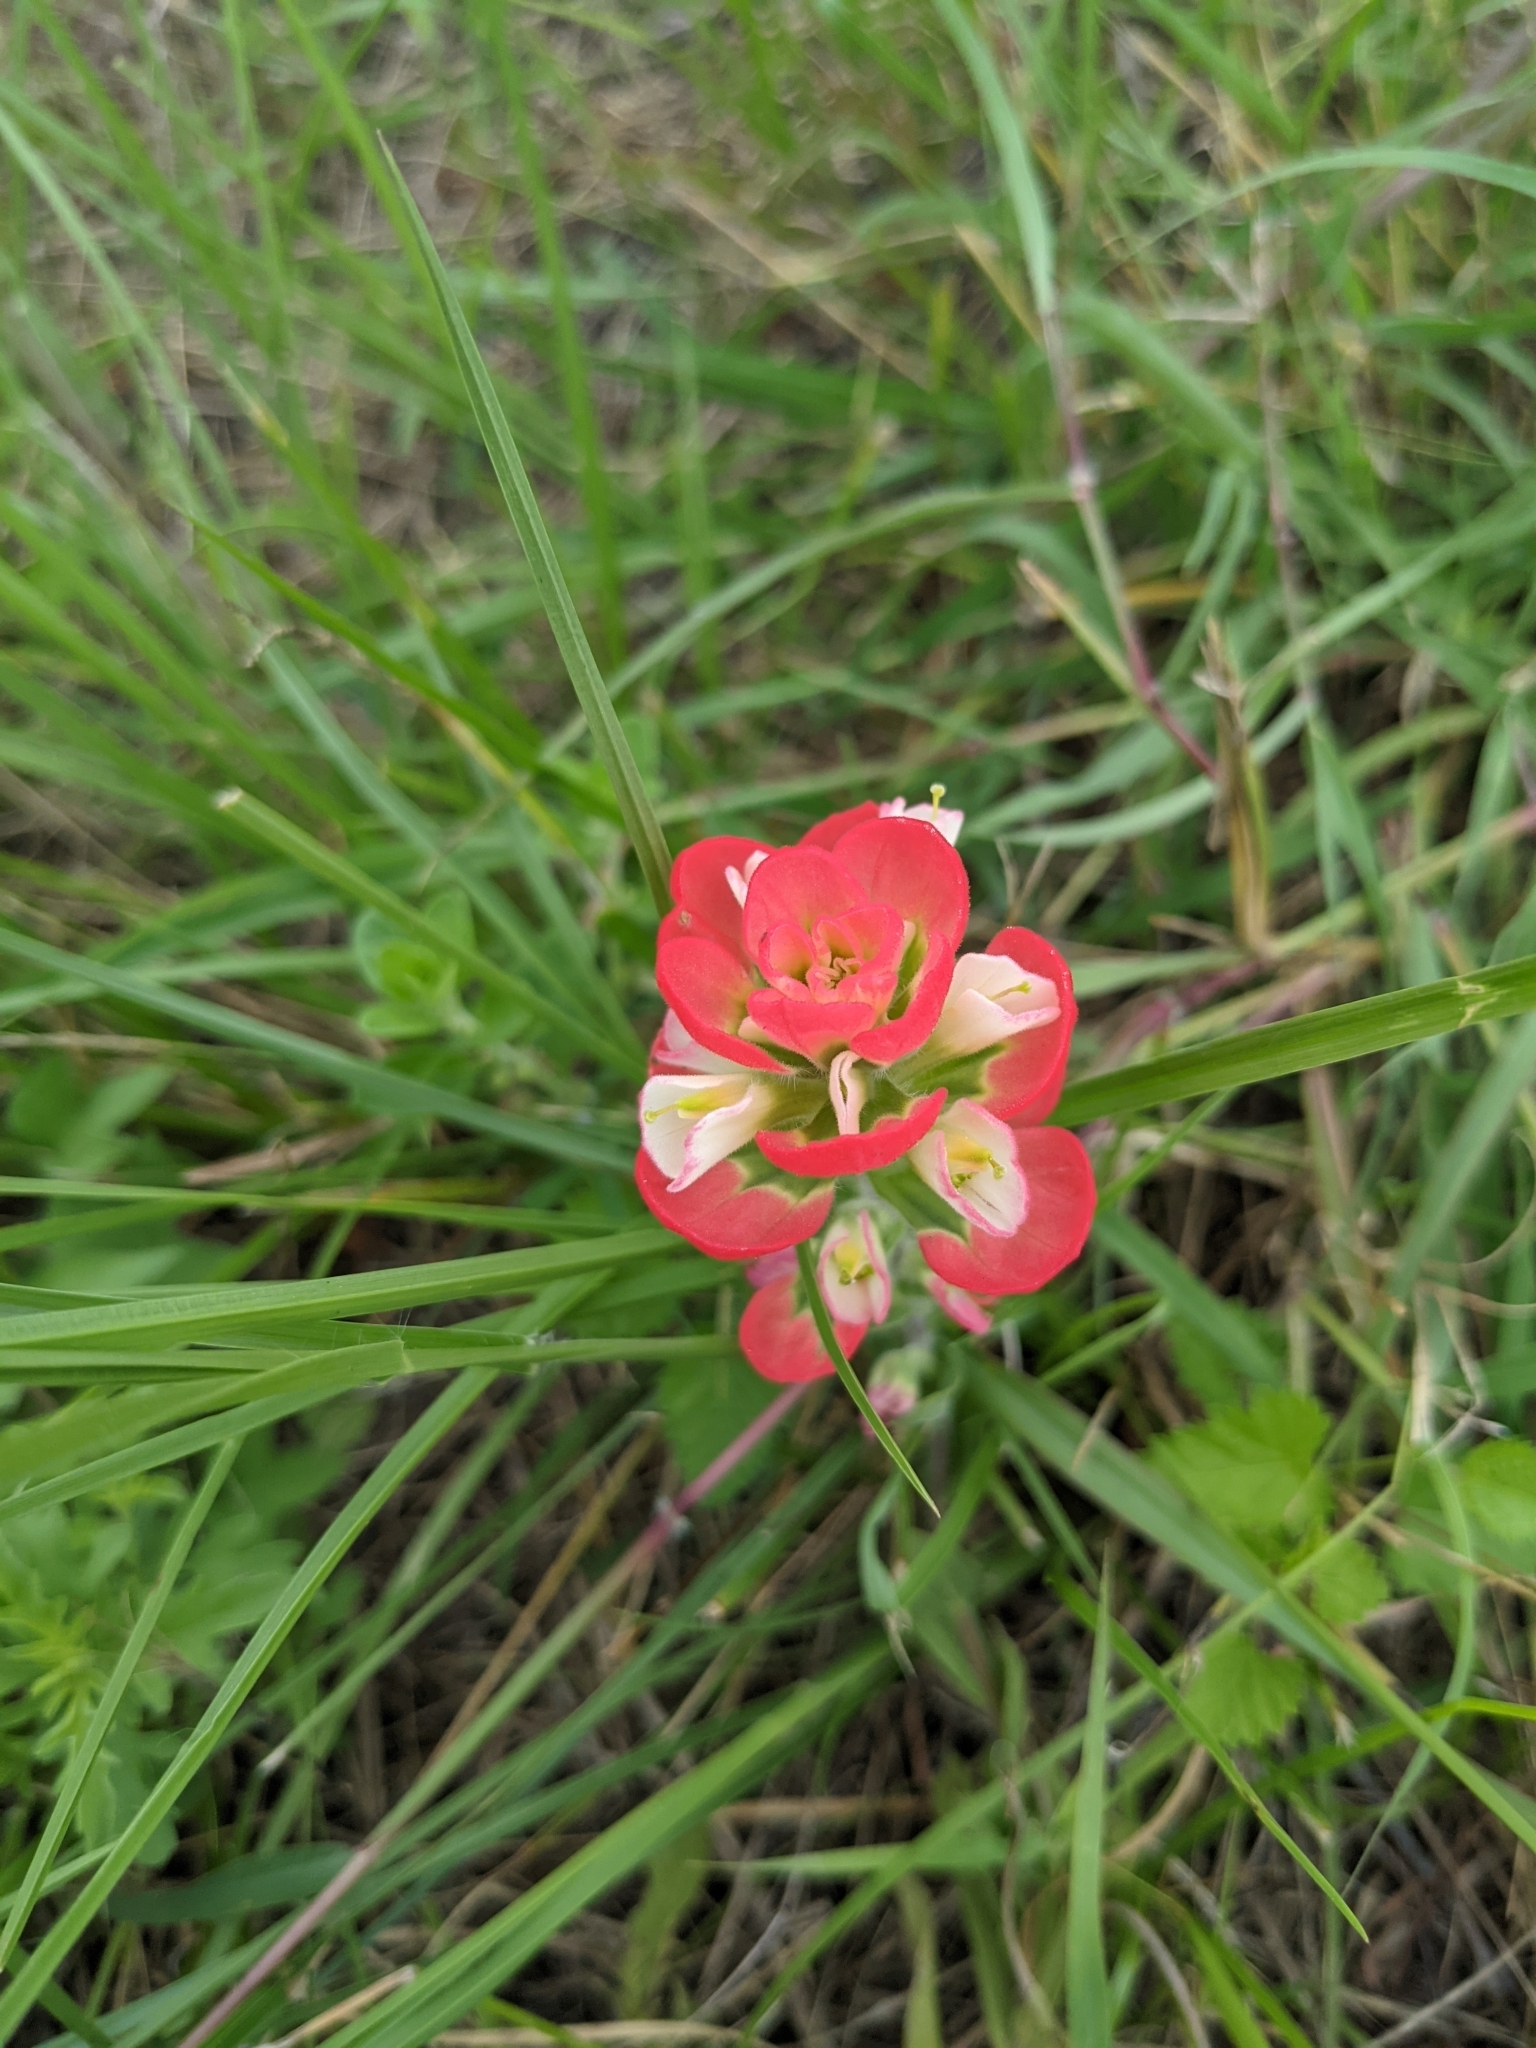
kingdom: Plantae
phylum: Tracheophyta
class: Magnoliopsida
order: Lamiales
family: Orobanchaceae
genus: Castilleja
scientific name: Castilleja indivisa
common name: Texas paintbrush
